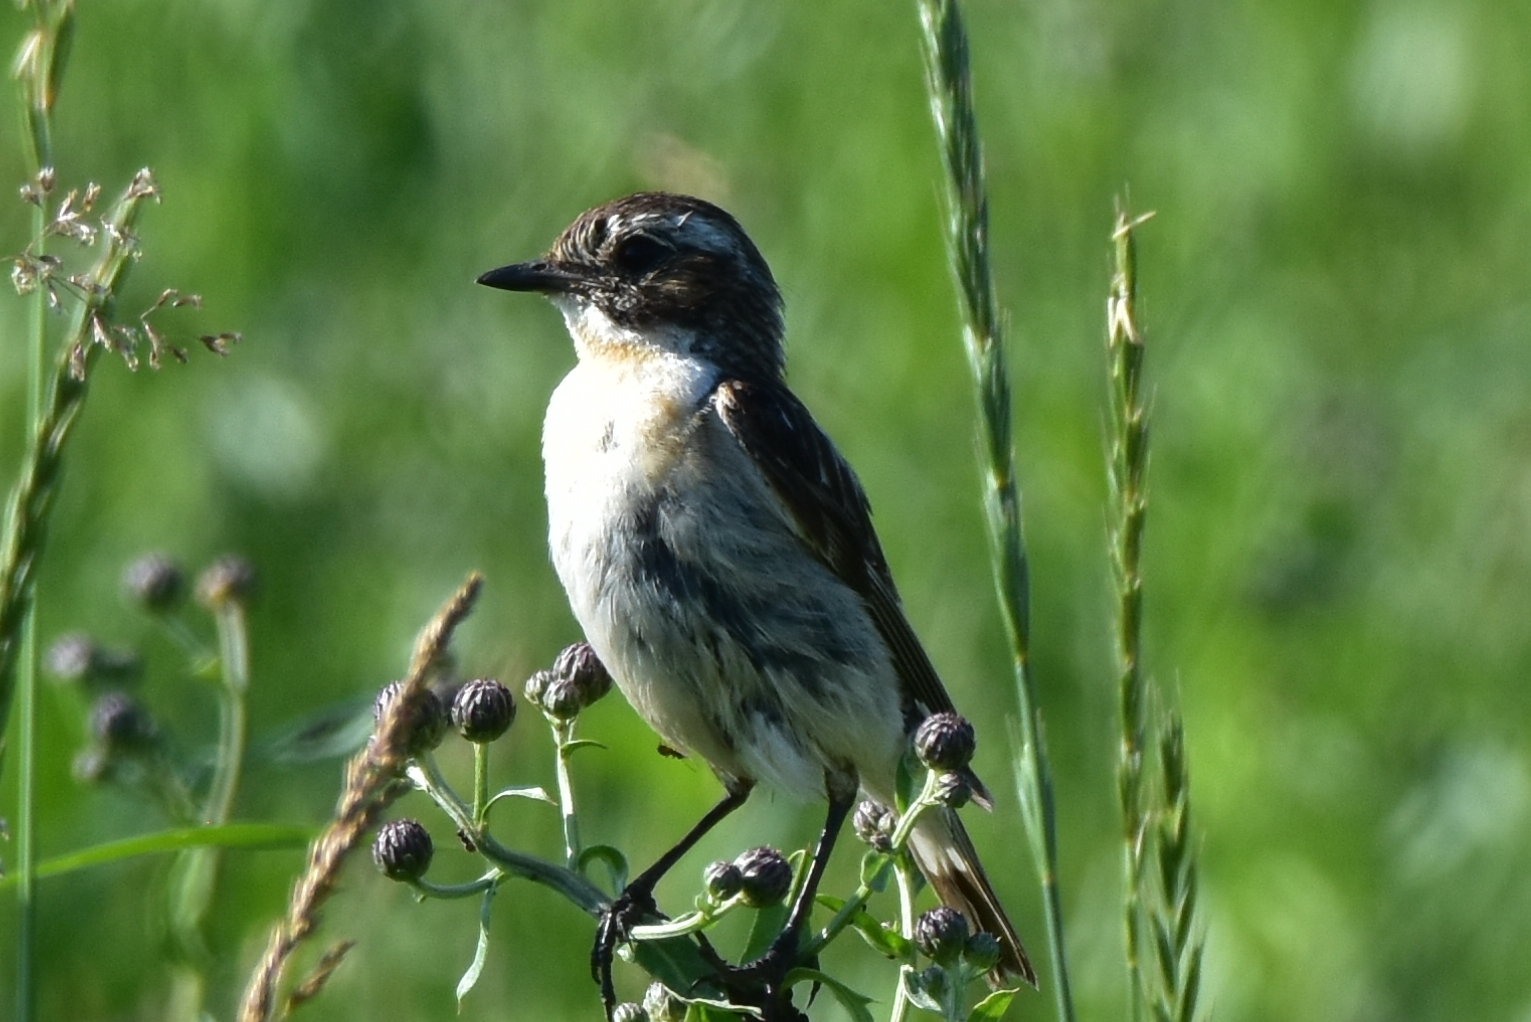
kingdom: Animalia
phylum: Chordata
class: Aves
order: Passeriformes
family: Muscicapidae
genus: Saxicola
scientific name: Saxicola rubetra
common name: Whinchat
